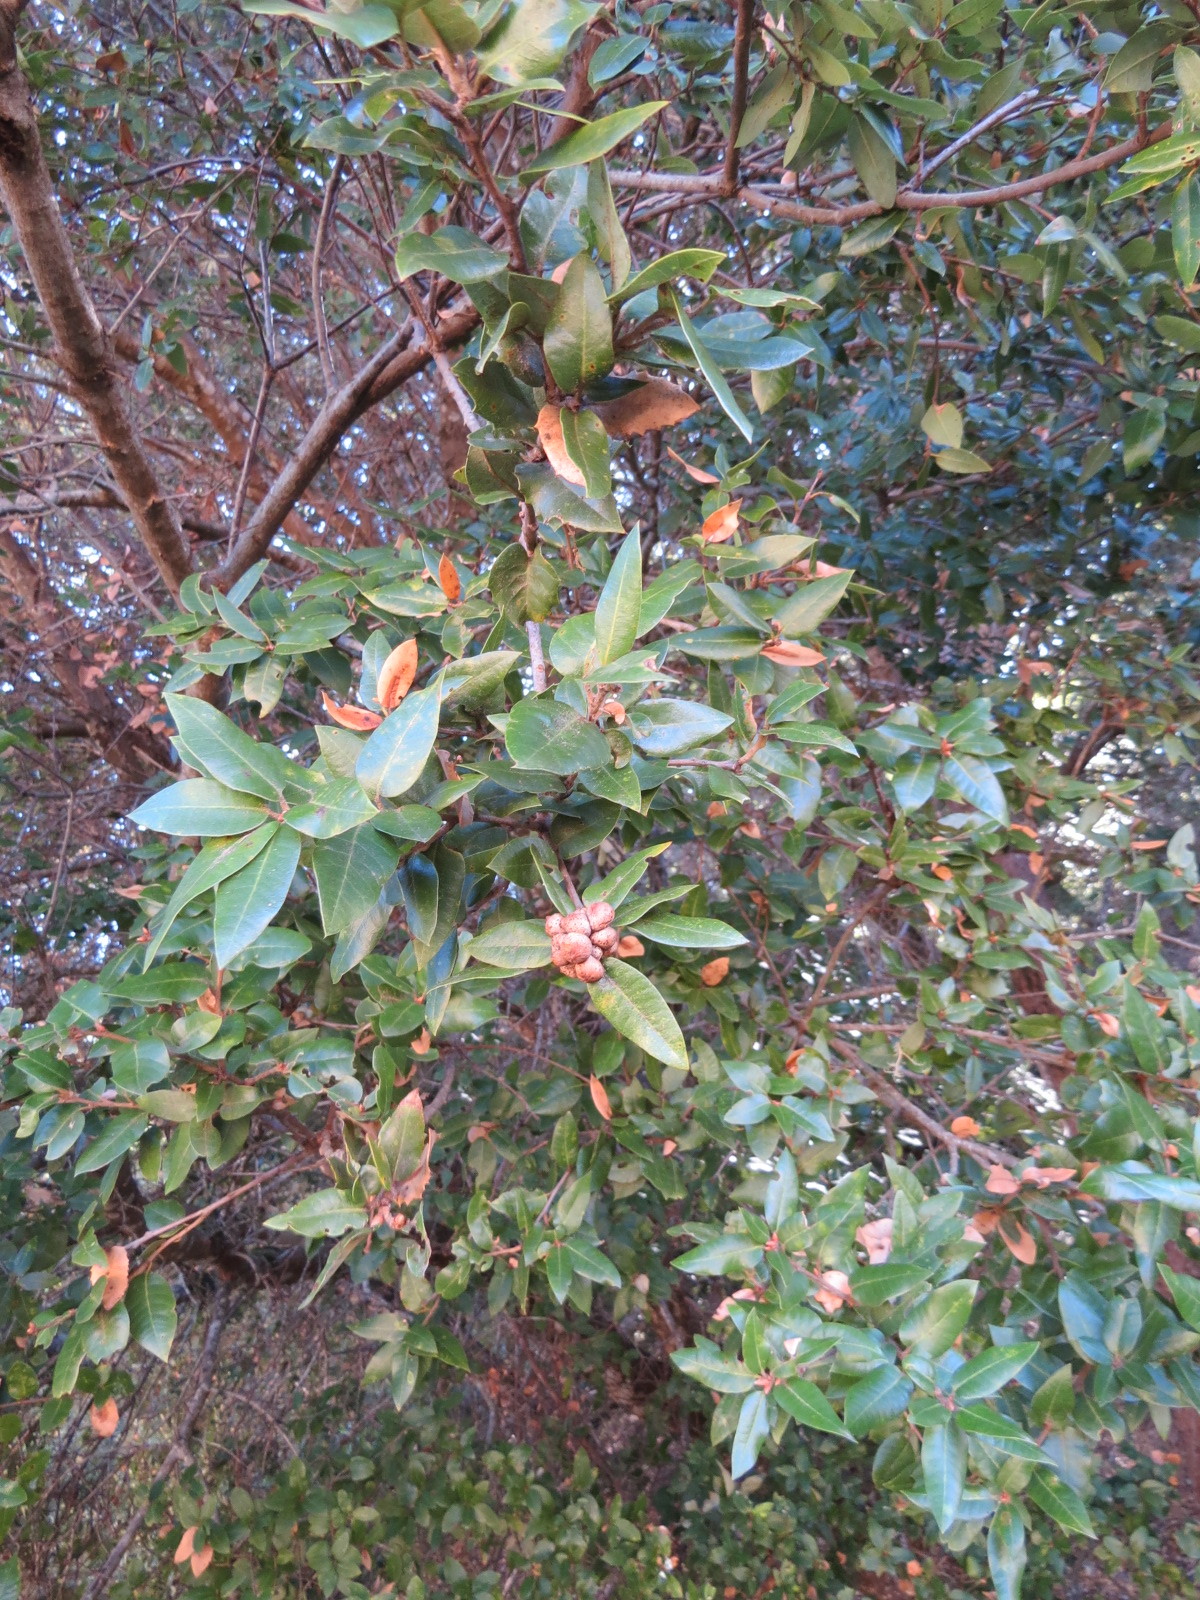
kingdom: Animalia
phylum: Arthropoda
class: Insecta
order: Hymenoptera
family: Cynipidae
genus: Heteroecus
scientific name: Heteroecus
